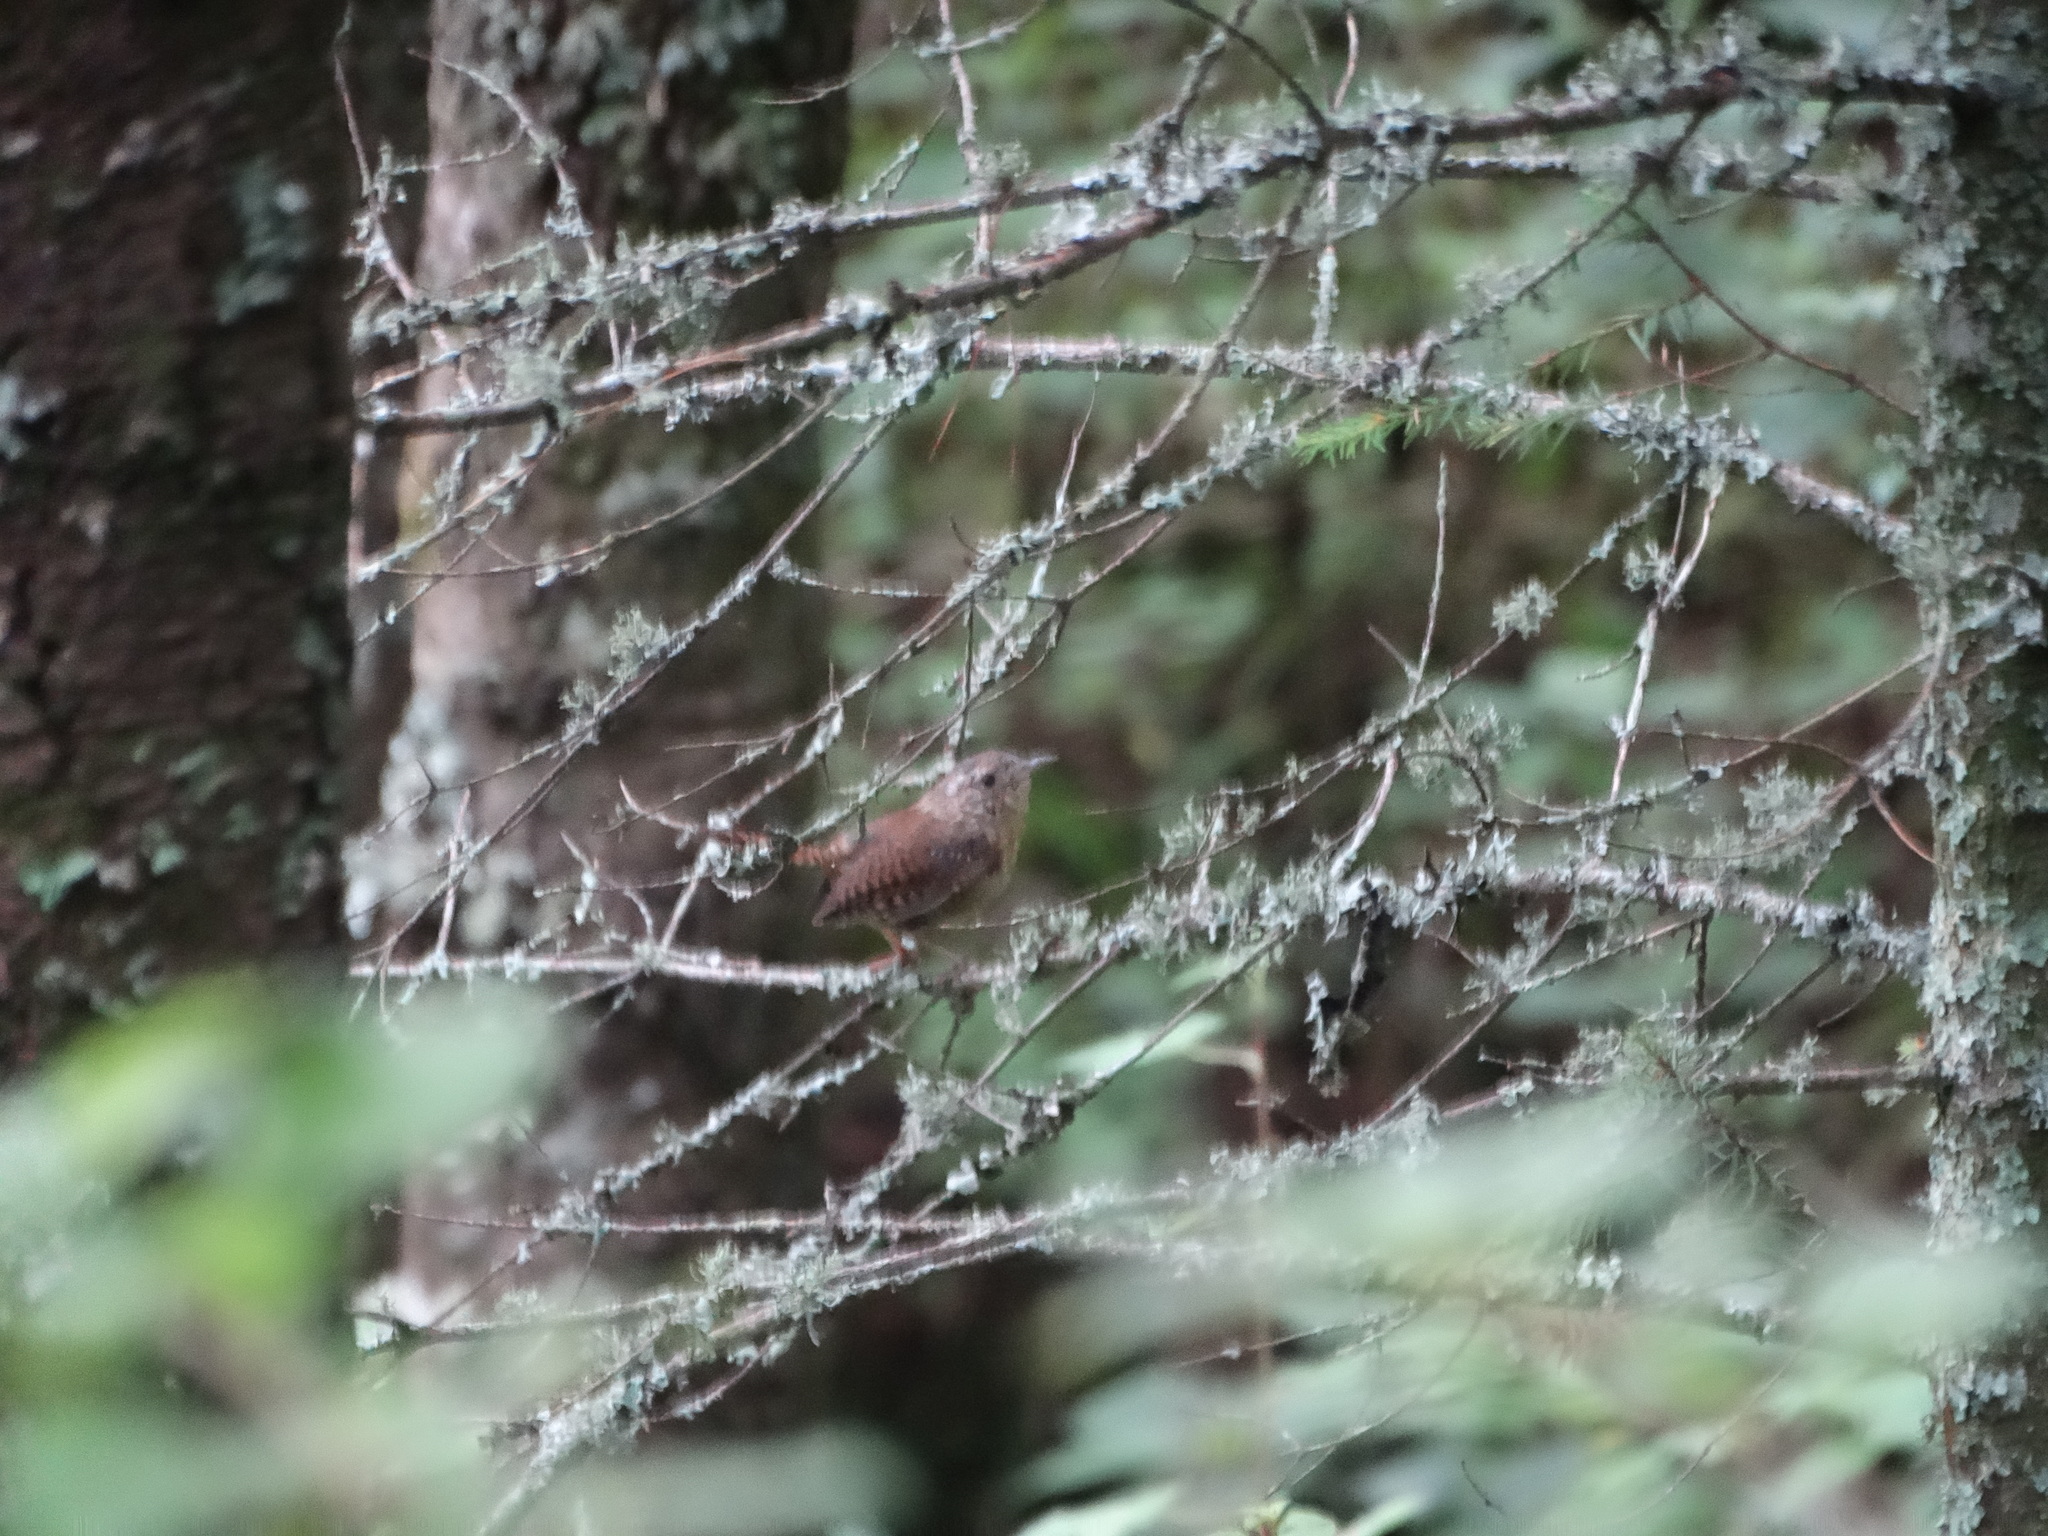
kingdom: Animalia
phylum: Chordata
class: Aves
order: Passeriformes
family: Troglodytidae
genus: Troglodytes
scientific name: Troglodytes aedon
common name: House wren
